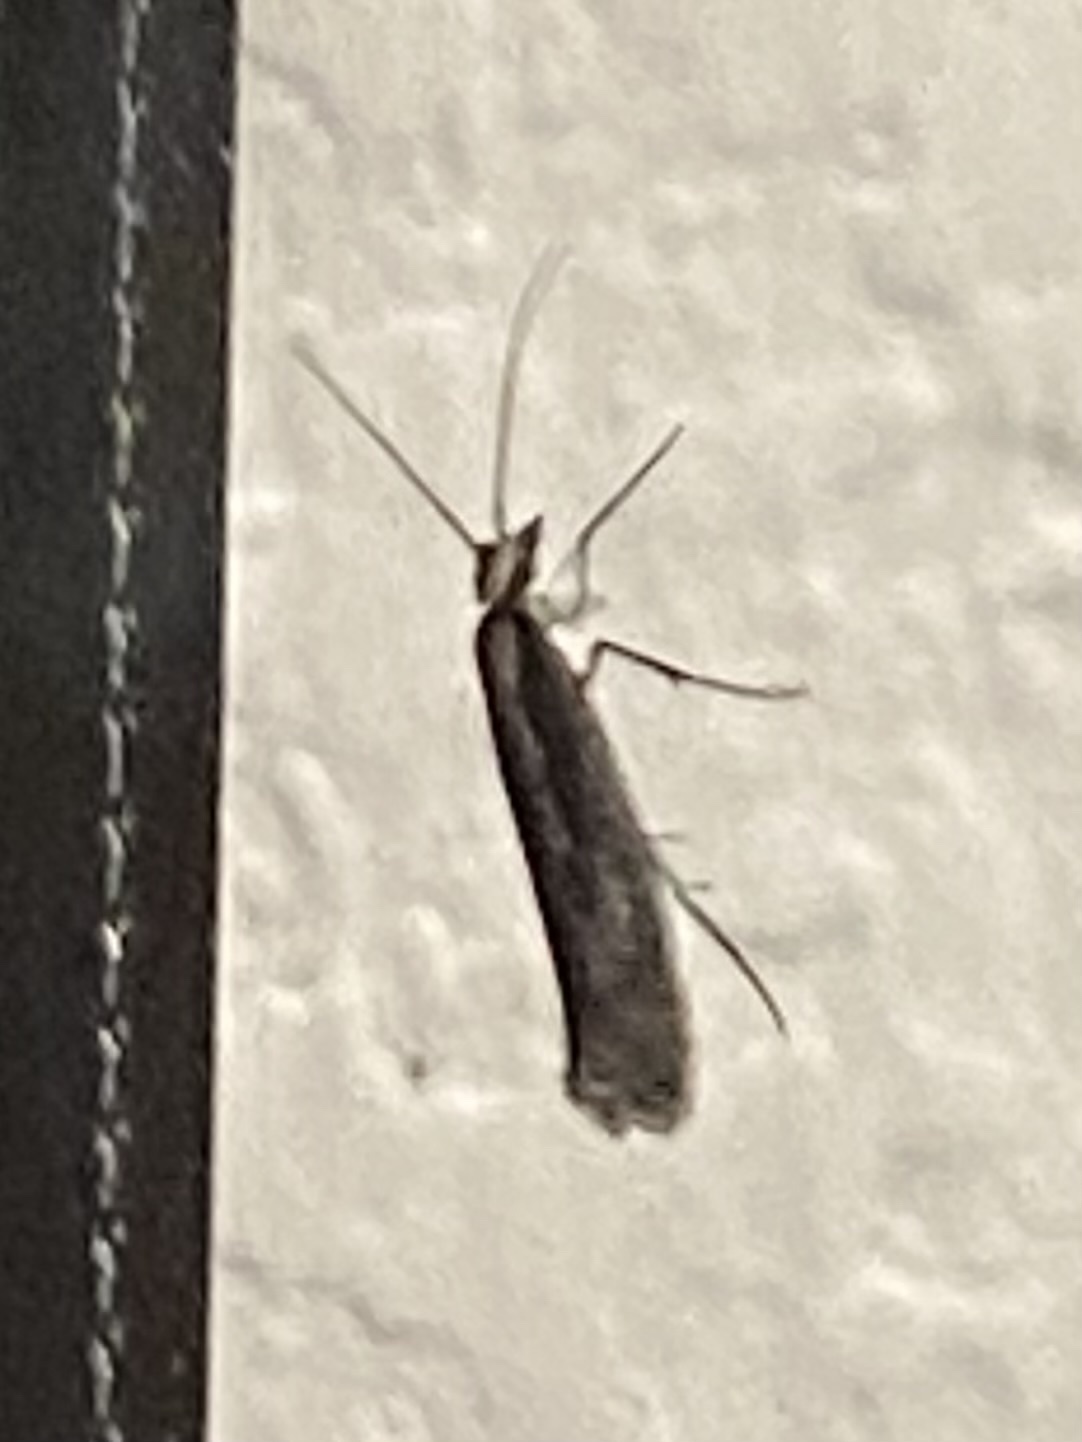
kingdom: Animalia
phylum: Arthropoda
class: Insecta
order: Lepidoptera
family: Plutellidae
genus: Plutella
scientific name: Plutella xylostella
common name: Diamond-back moth
